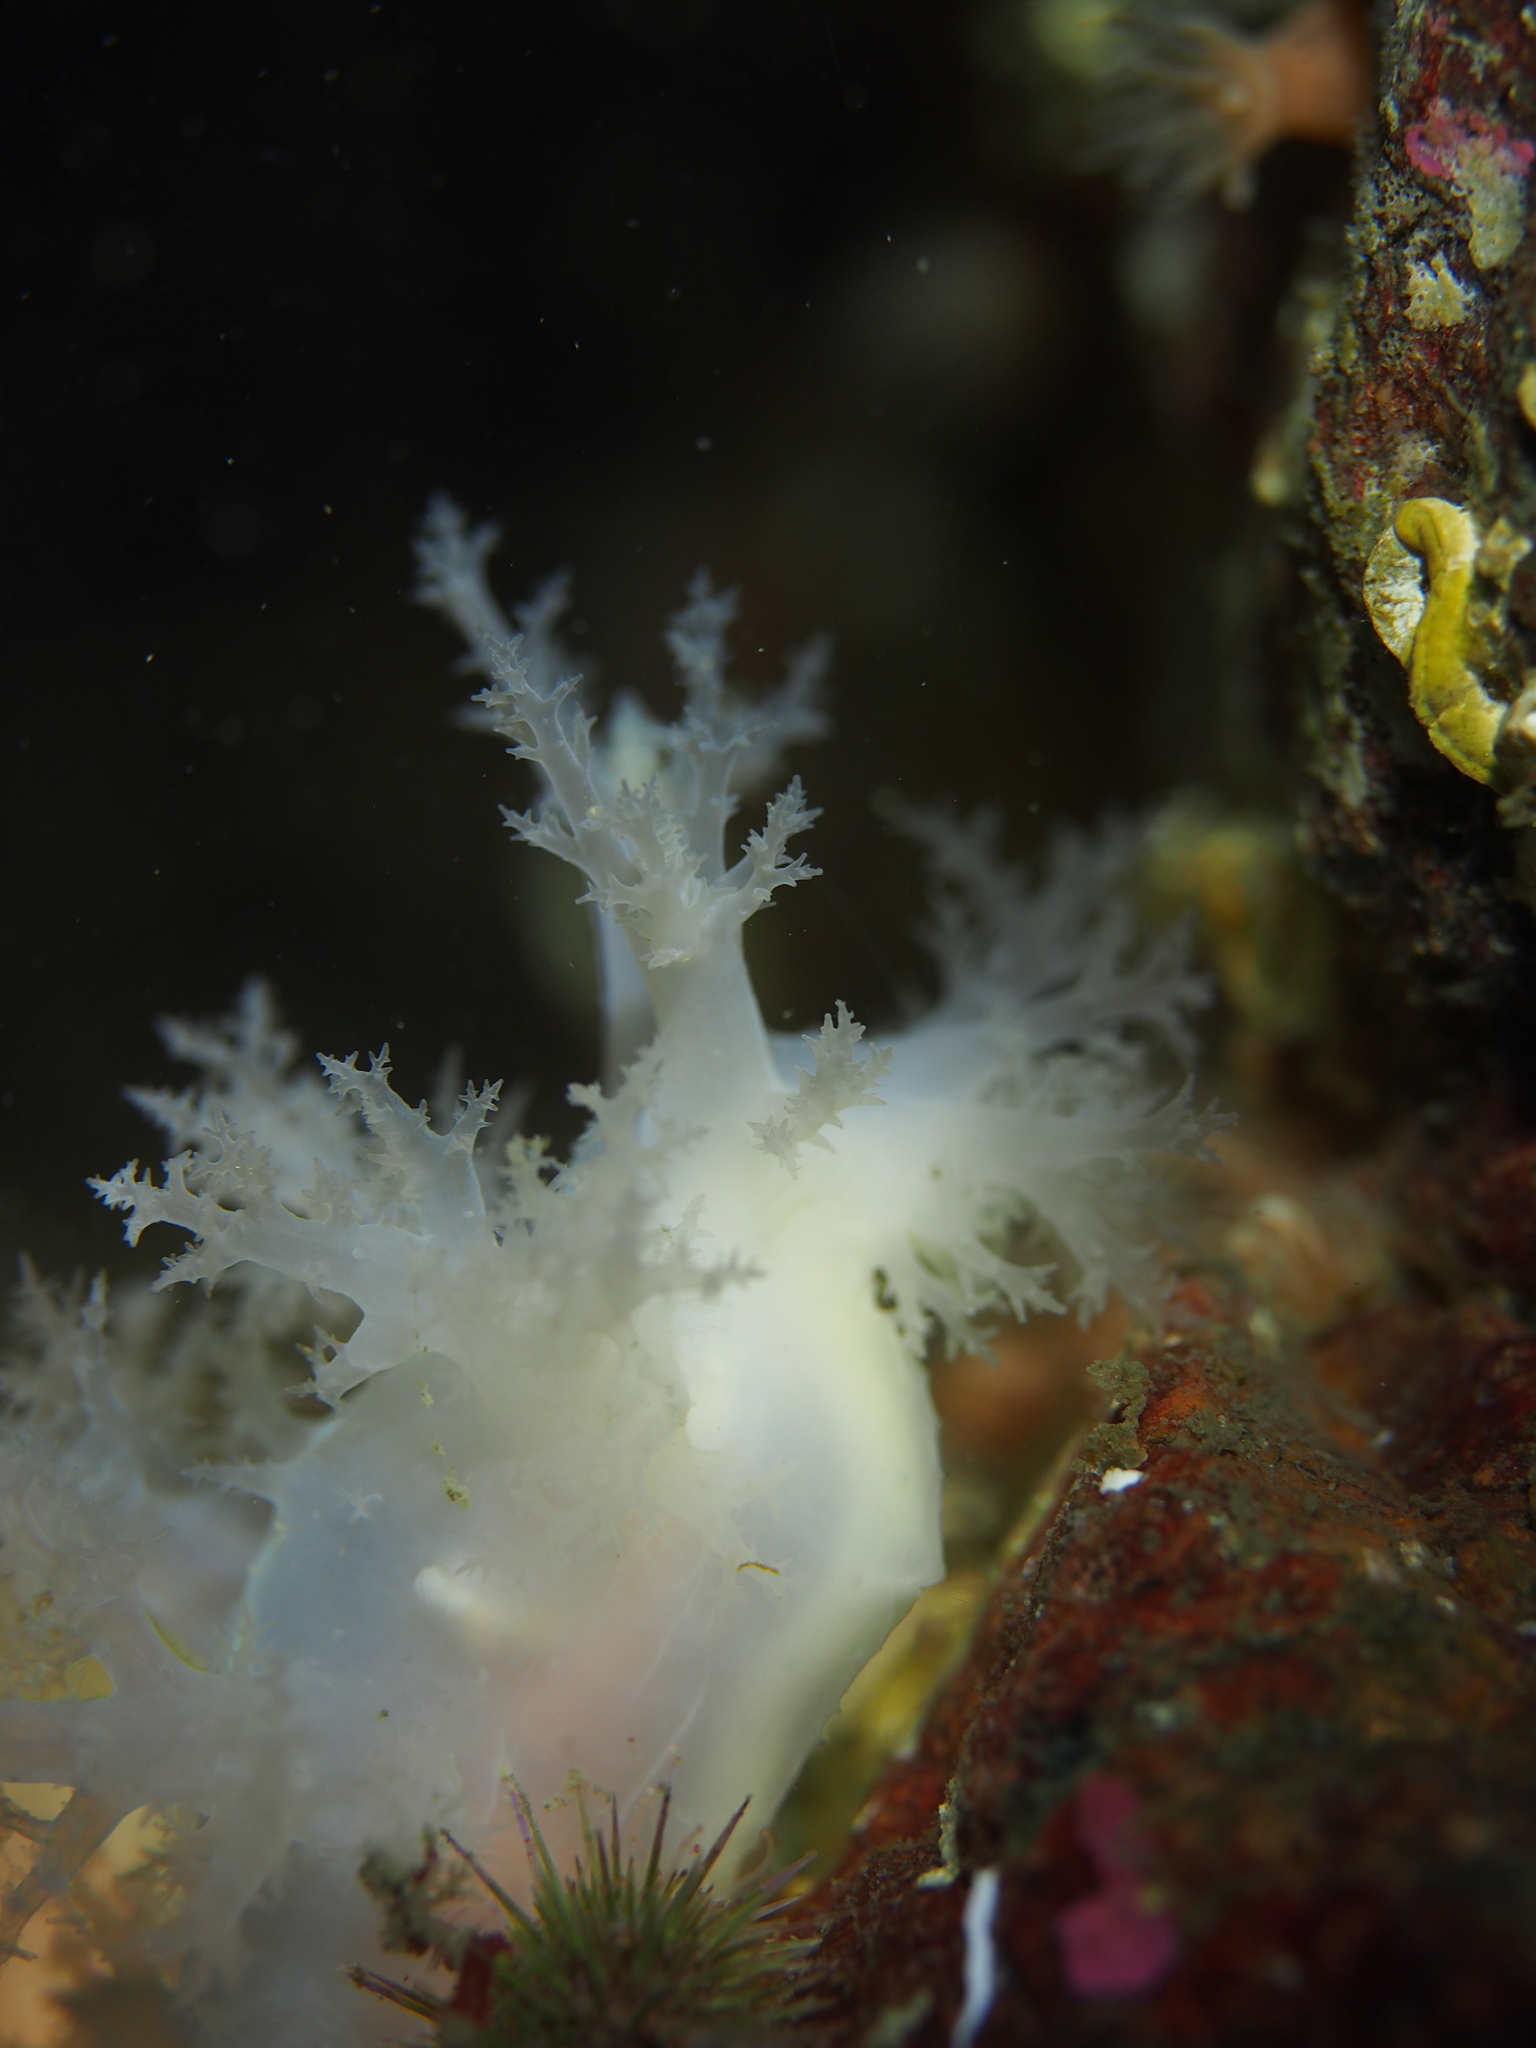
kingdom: Animalia
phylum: Mollusca
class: Gastropoda
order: Nudibranchia
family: Dendronotidae
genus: Dendronotus
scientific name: Dendronotus lacteus
